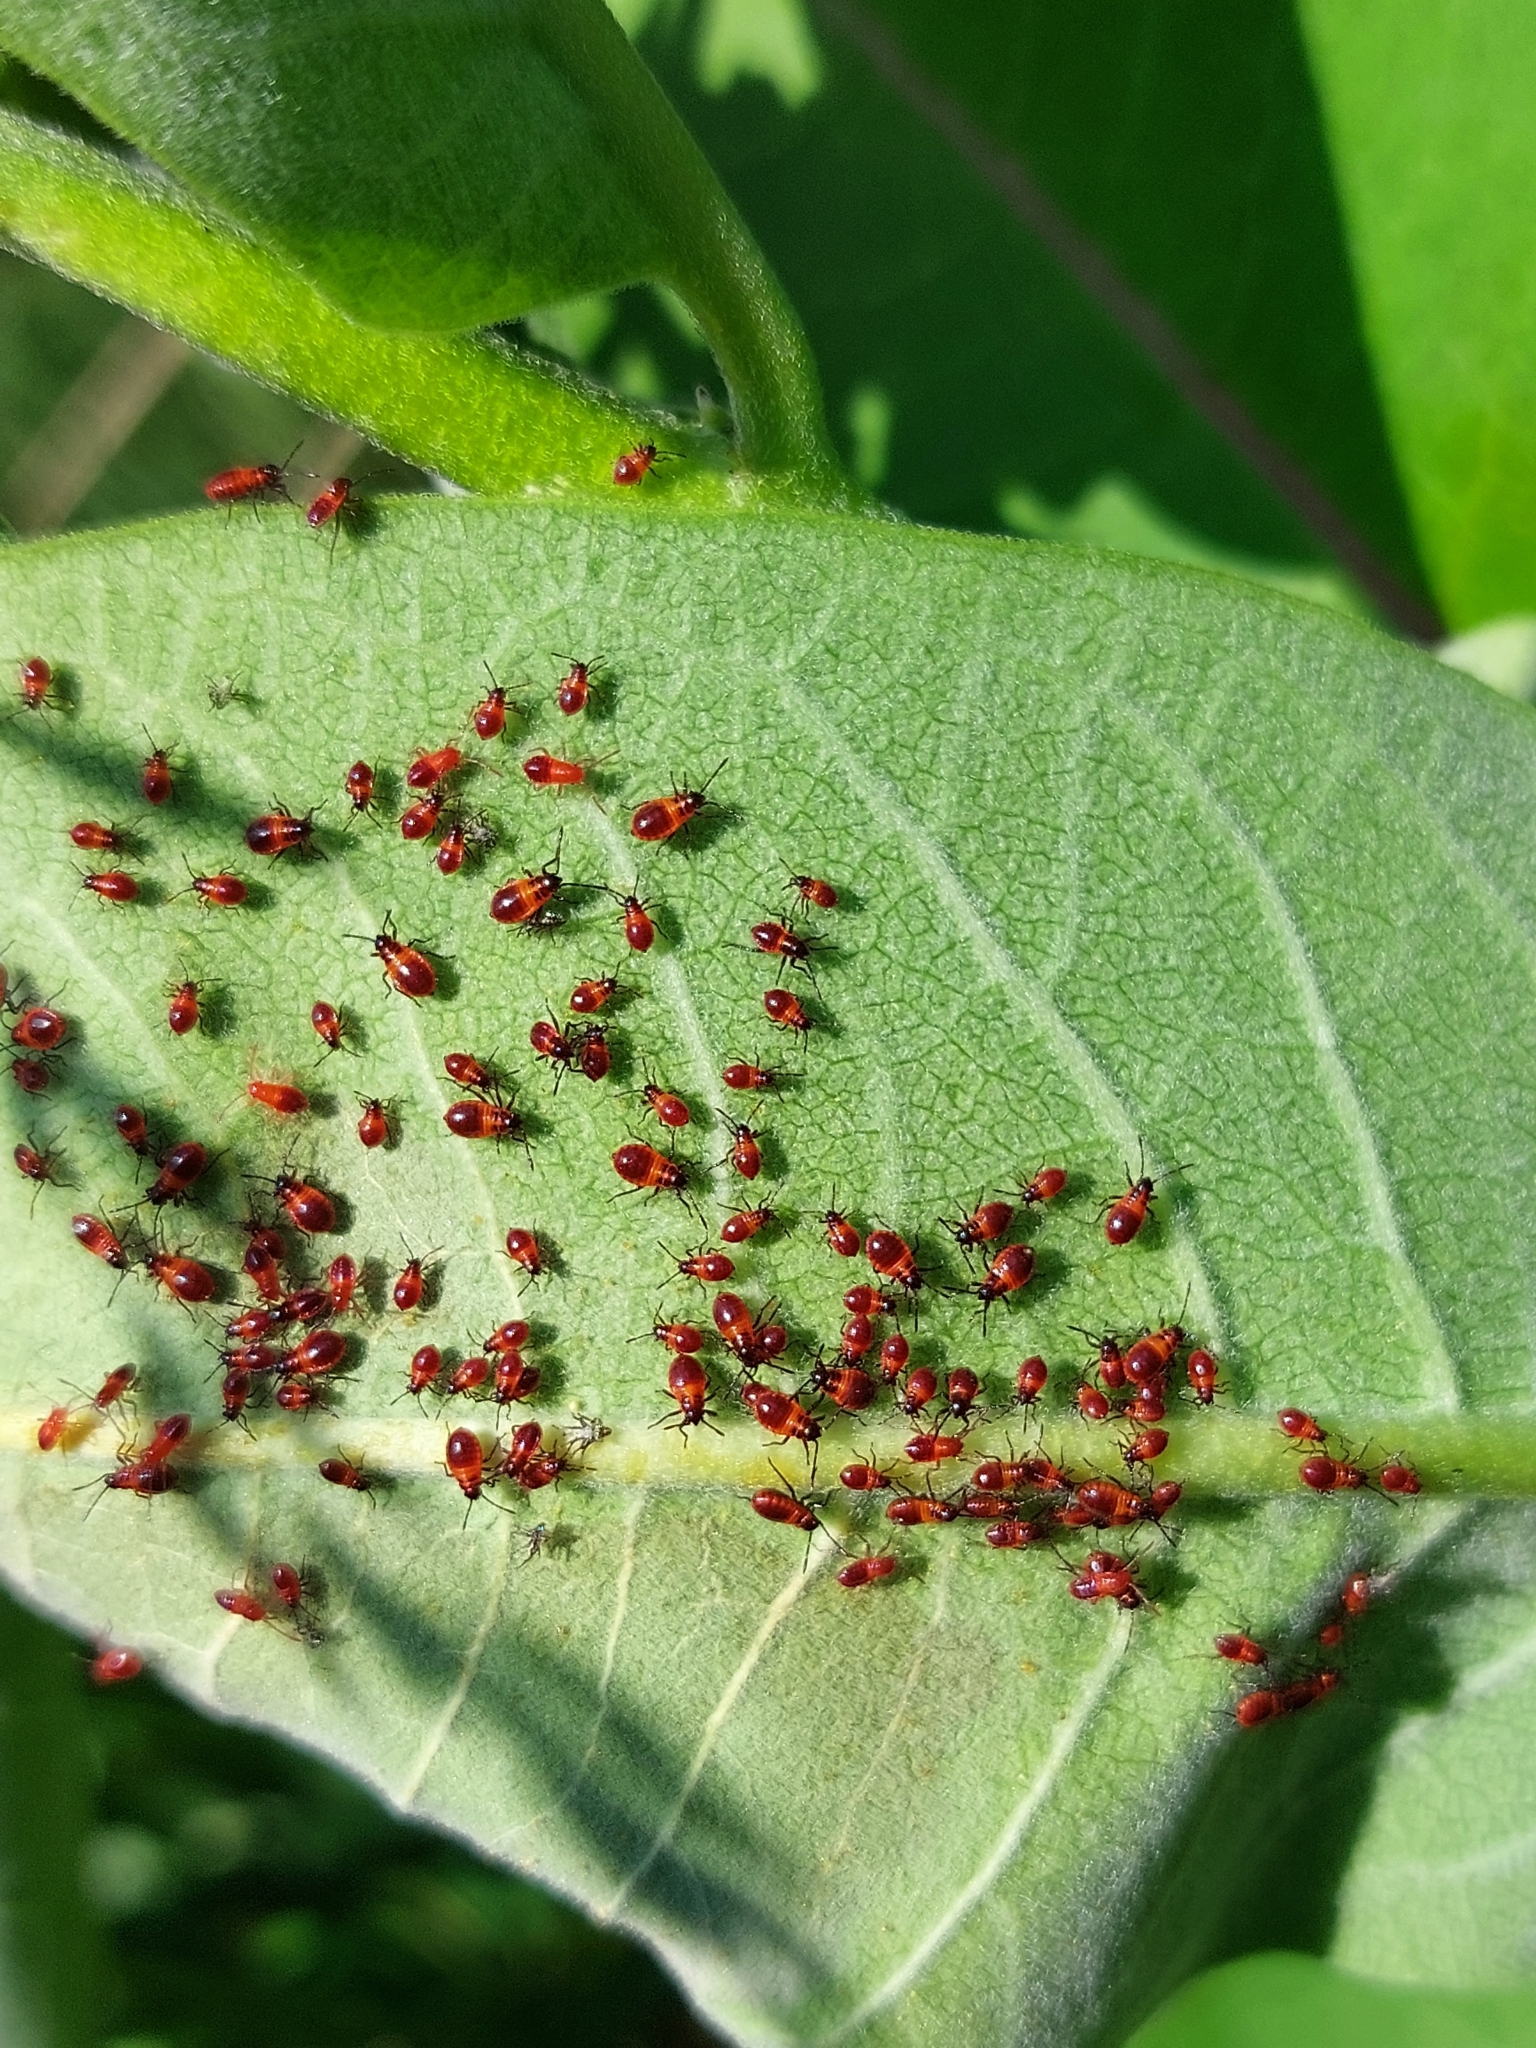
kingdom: Animalia
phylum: Arthropoda
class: Insecta
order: Hemiptera
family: Lygaeidae
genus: Tropidothorax
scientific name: Tropidothorax leucopterus
